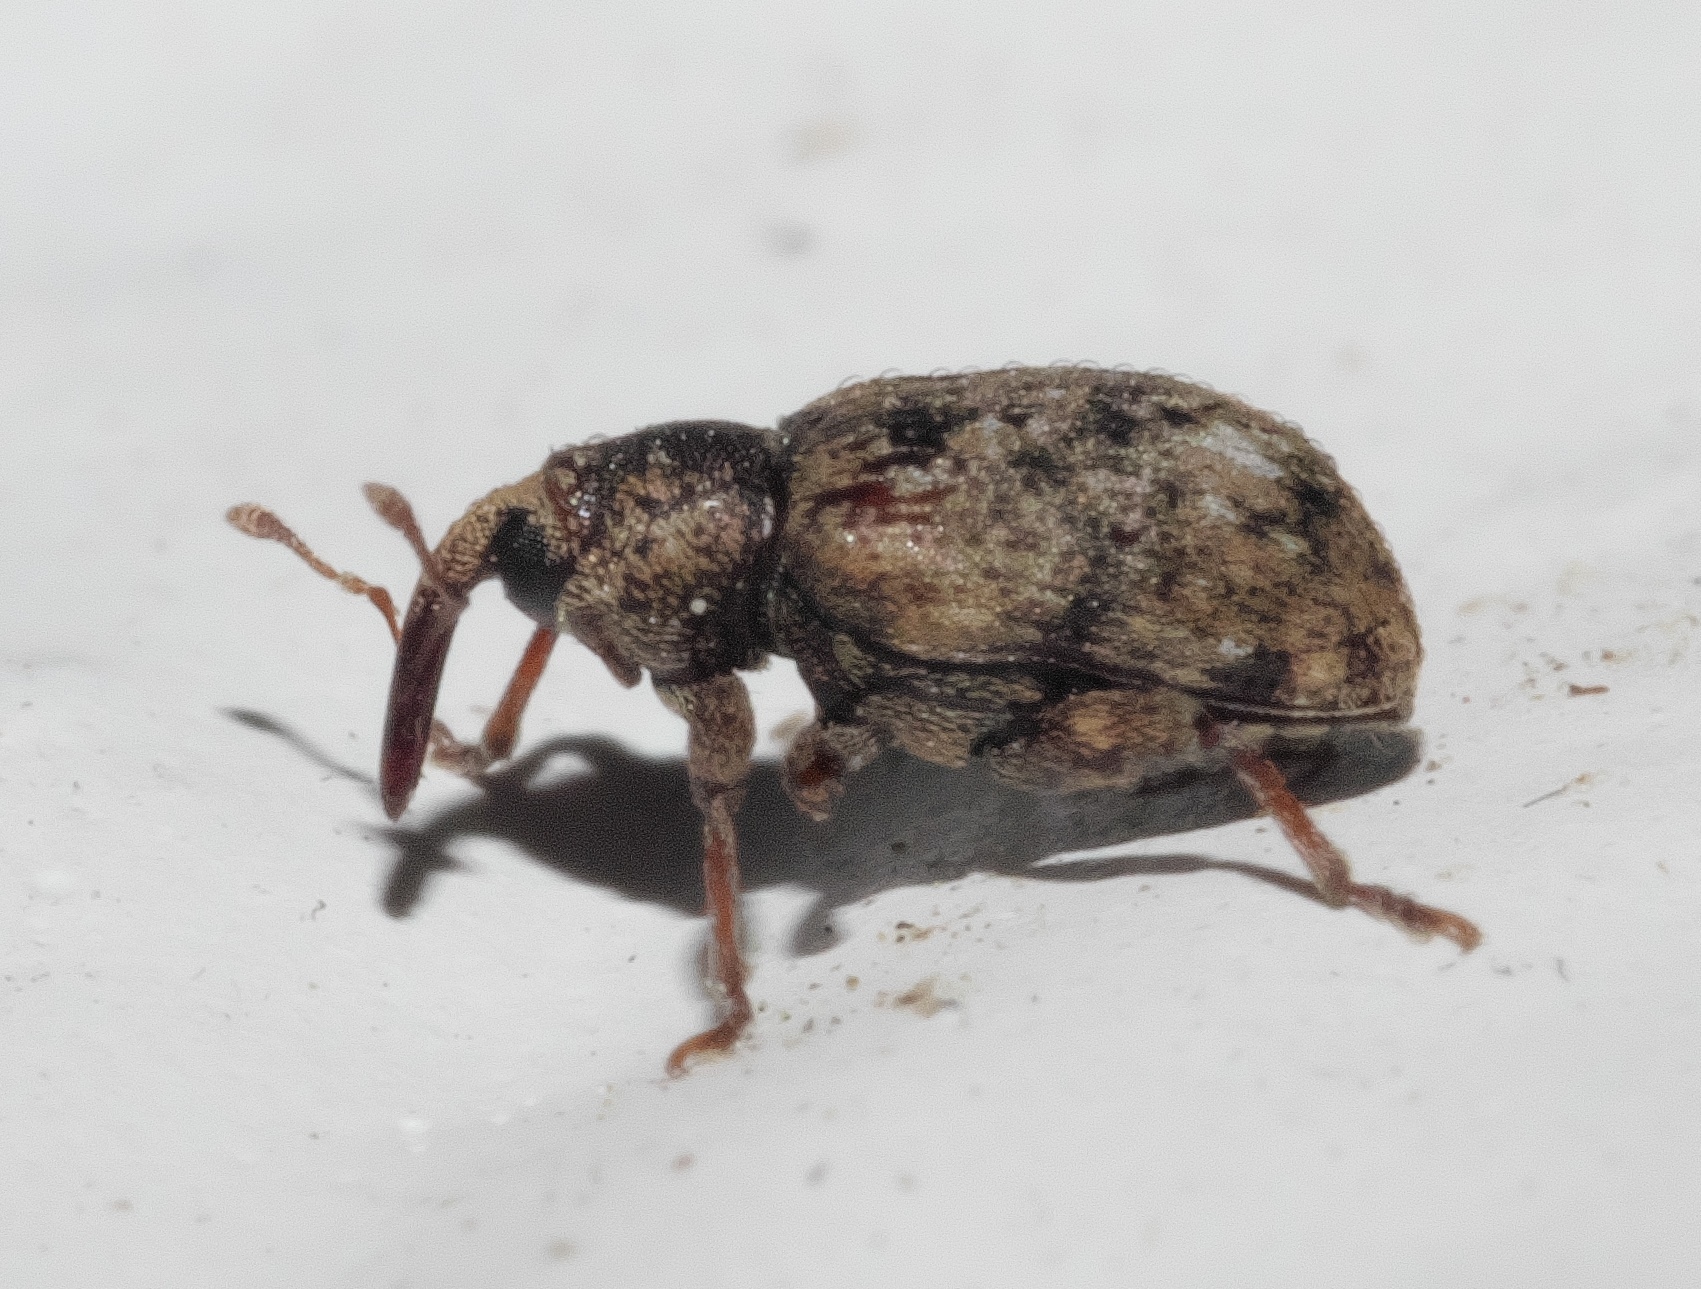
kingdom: Animalia
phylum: Arthropoda
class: Insecta
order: Coleoptera
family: Curculionidae
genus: Conotrachelus
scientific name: Conotrachelus recessus
